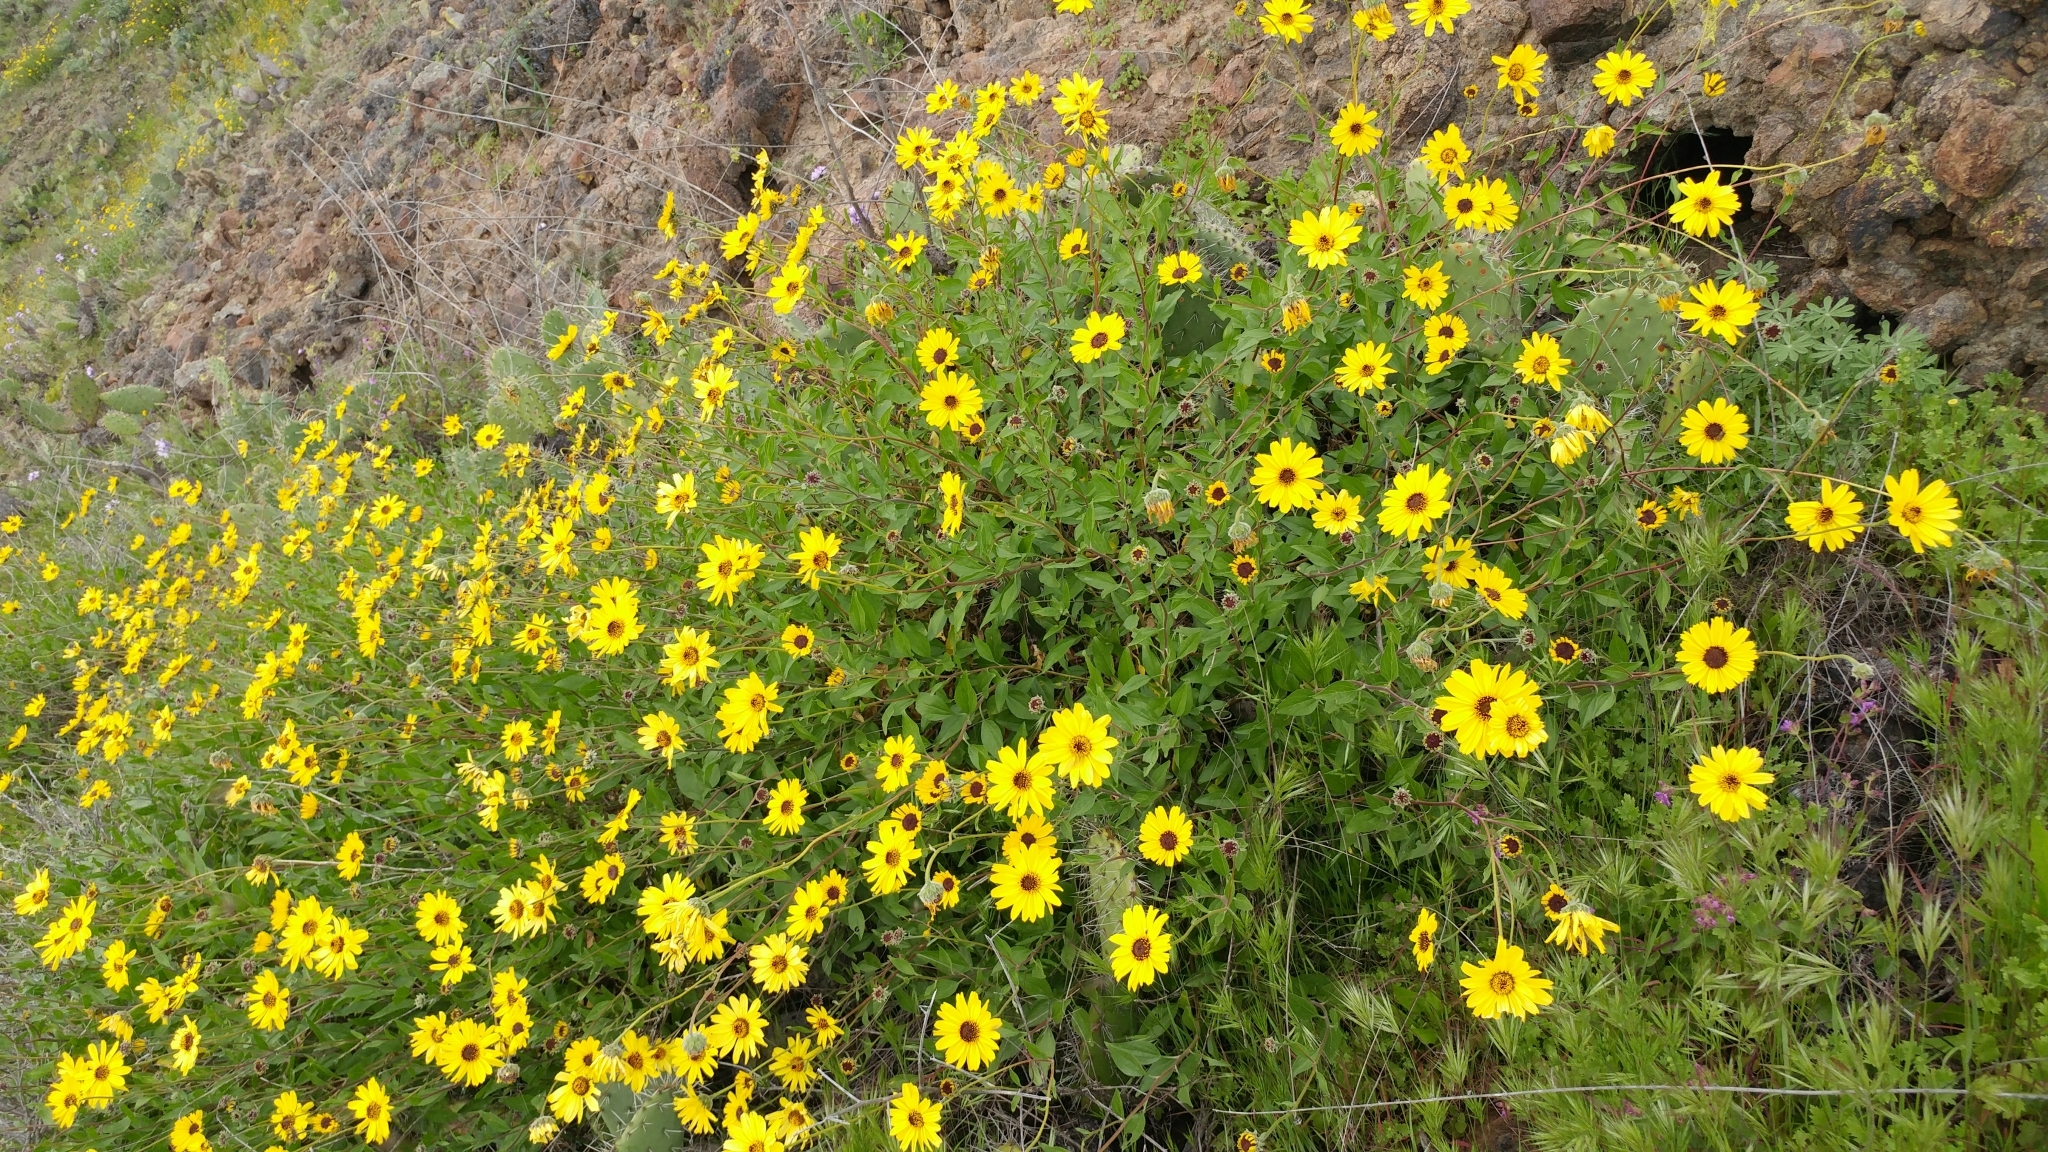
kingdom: Plantae
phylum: Tracheophyta
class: Magnoliopsida
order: Asterales
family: Asteraceae
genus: Encelia
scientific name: Encelia californica
